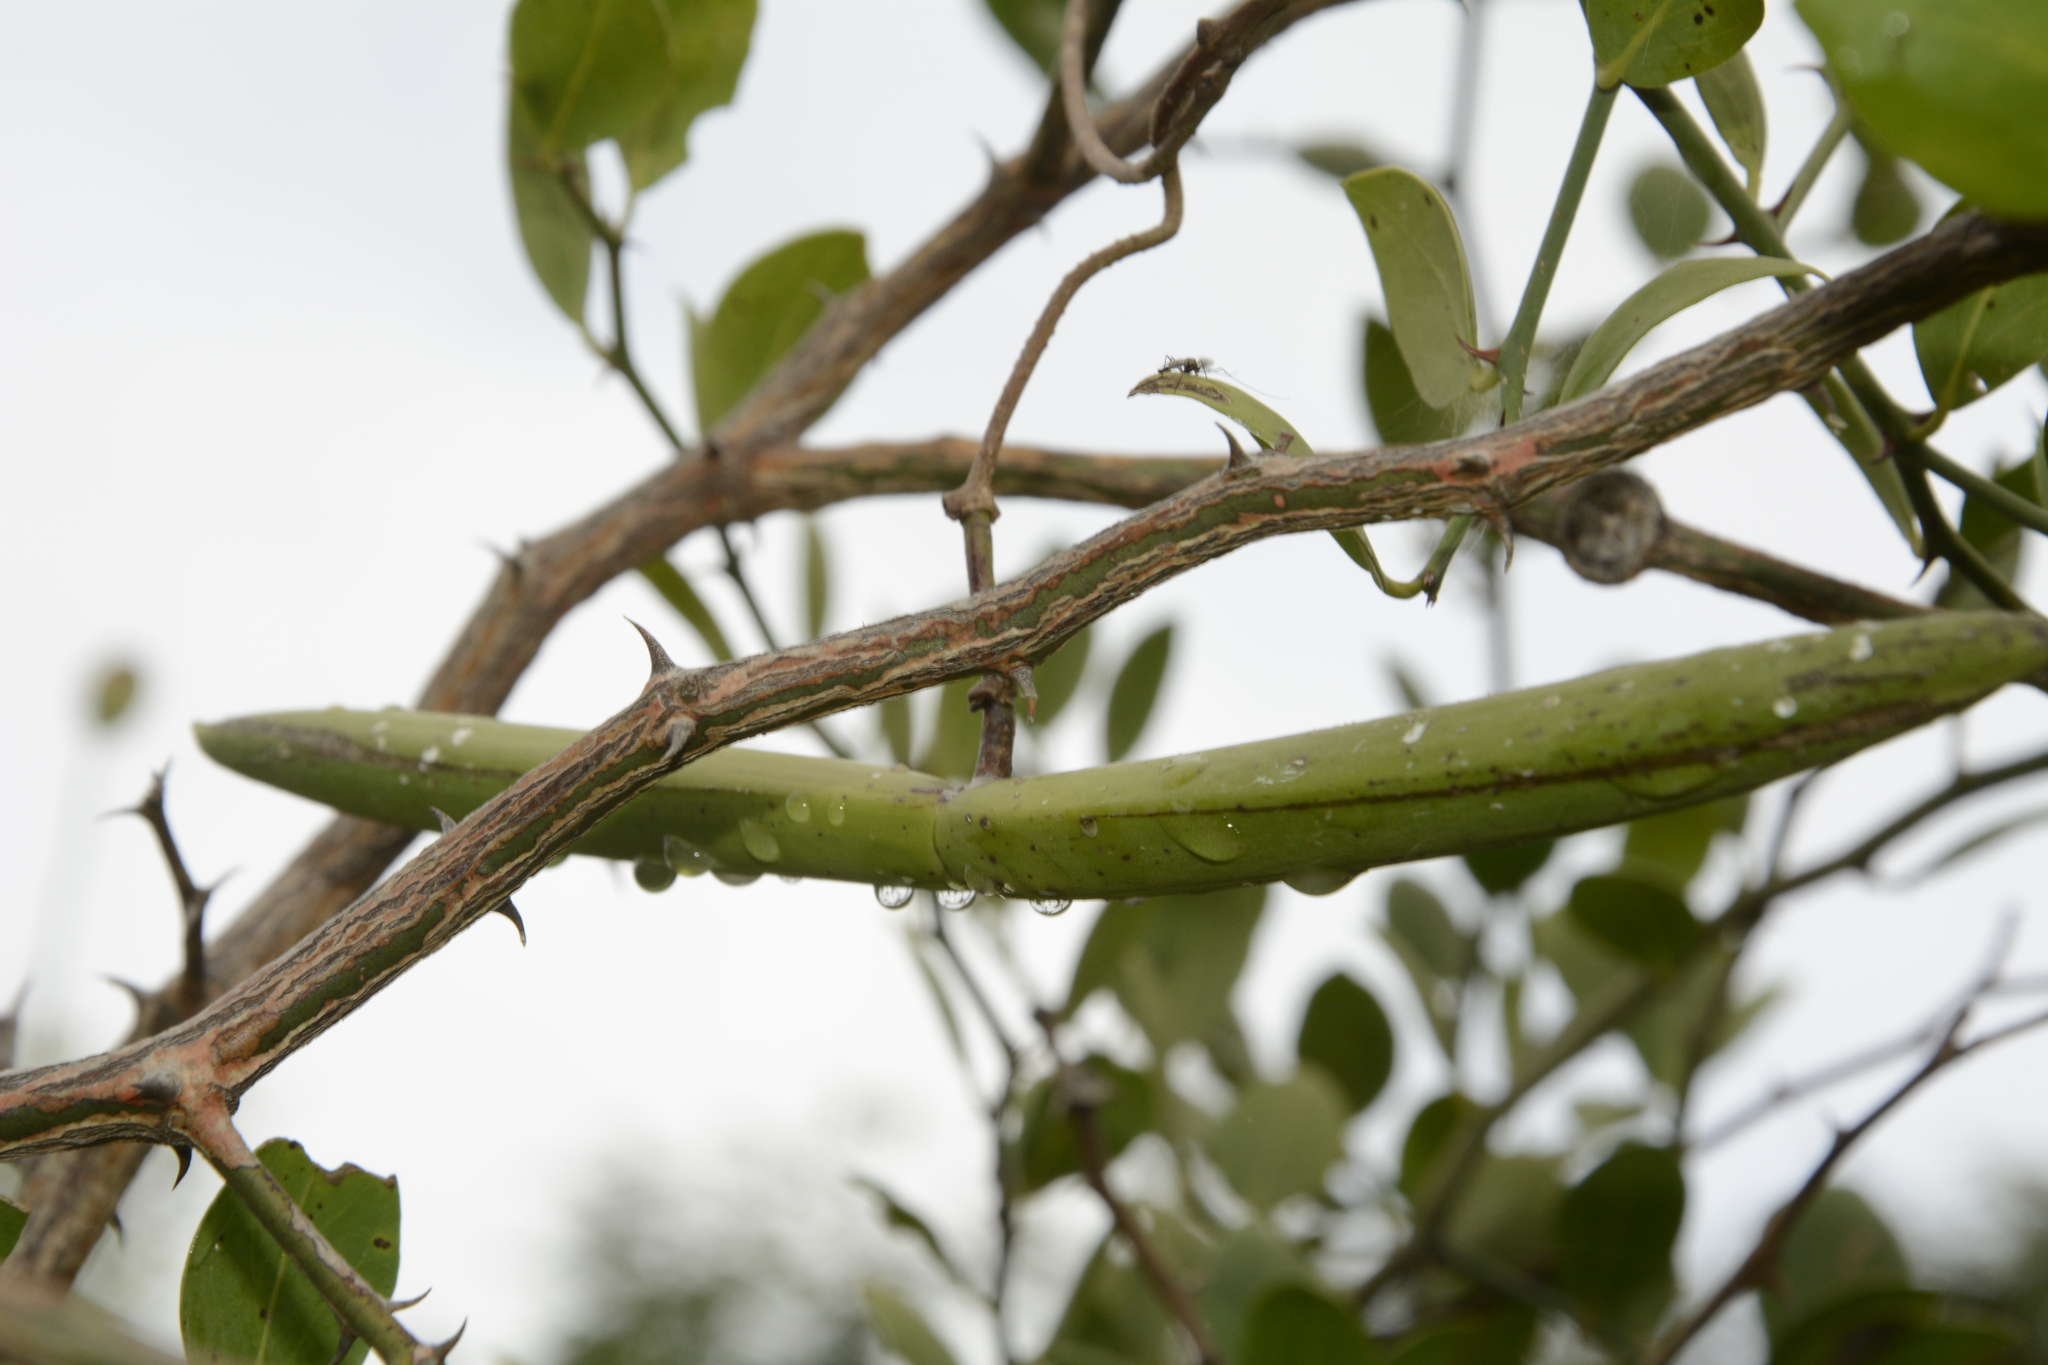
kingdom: Plantae
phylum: Tracheophyta
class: Magnoliopsida
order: Gentianales
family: Apocynaceae
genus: Cryptolepis
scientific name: Cryptolepis grandiflora
